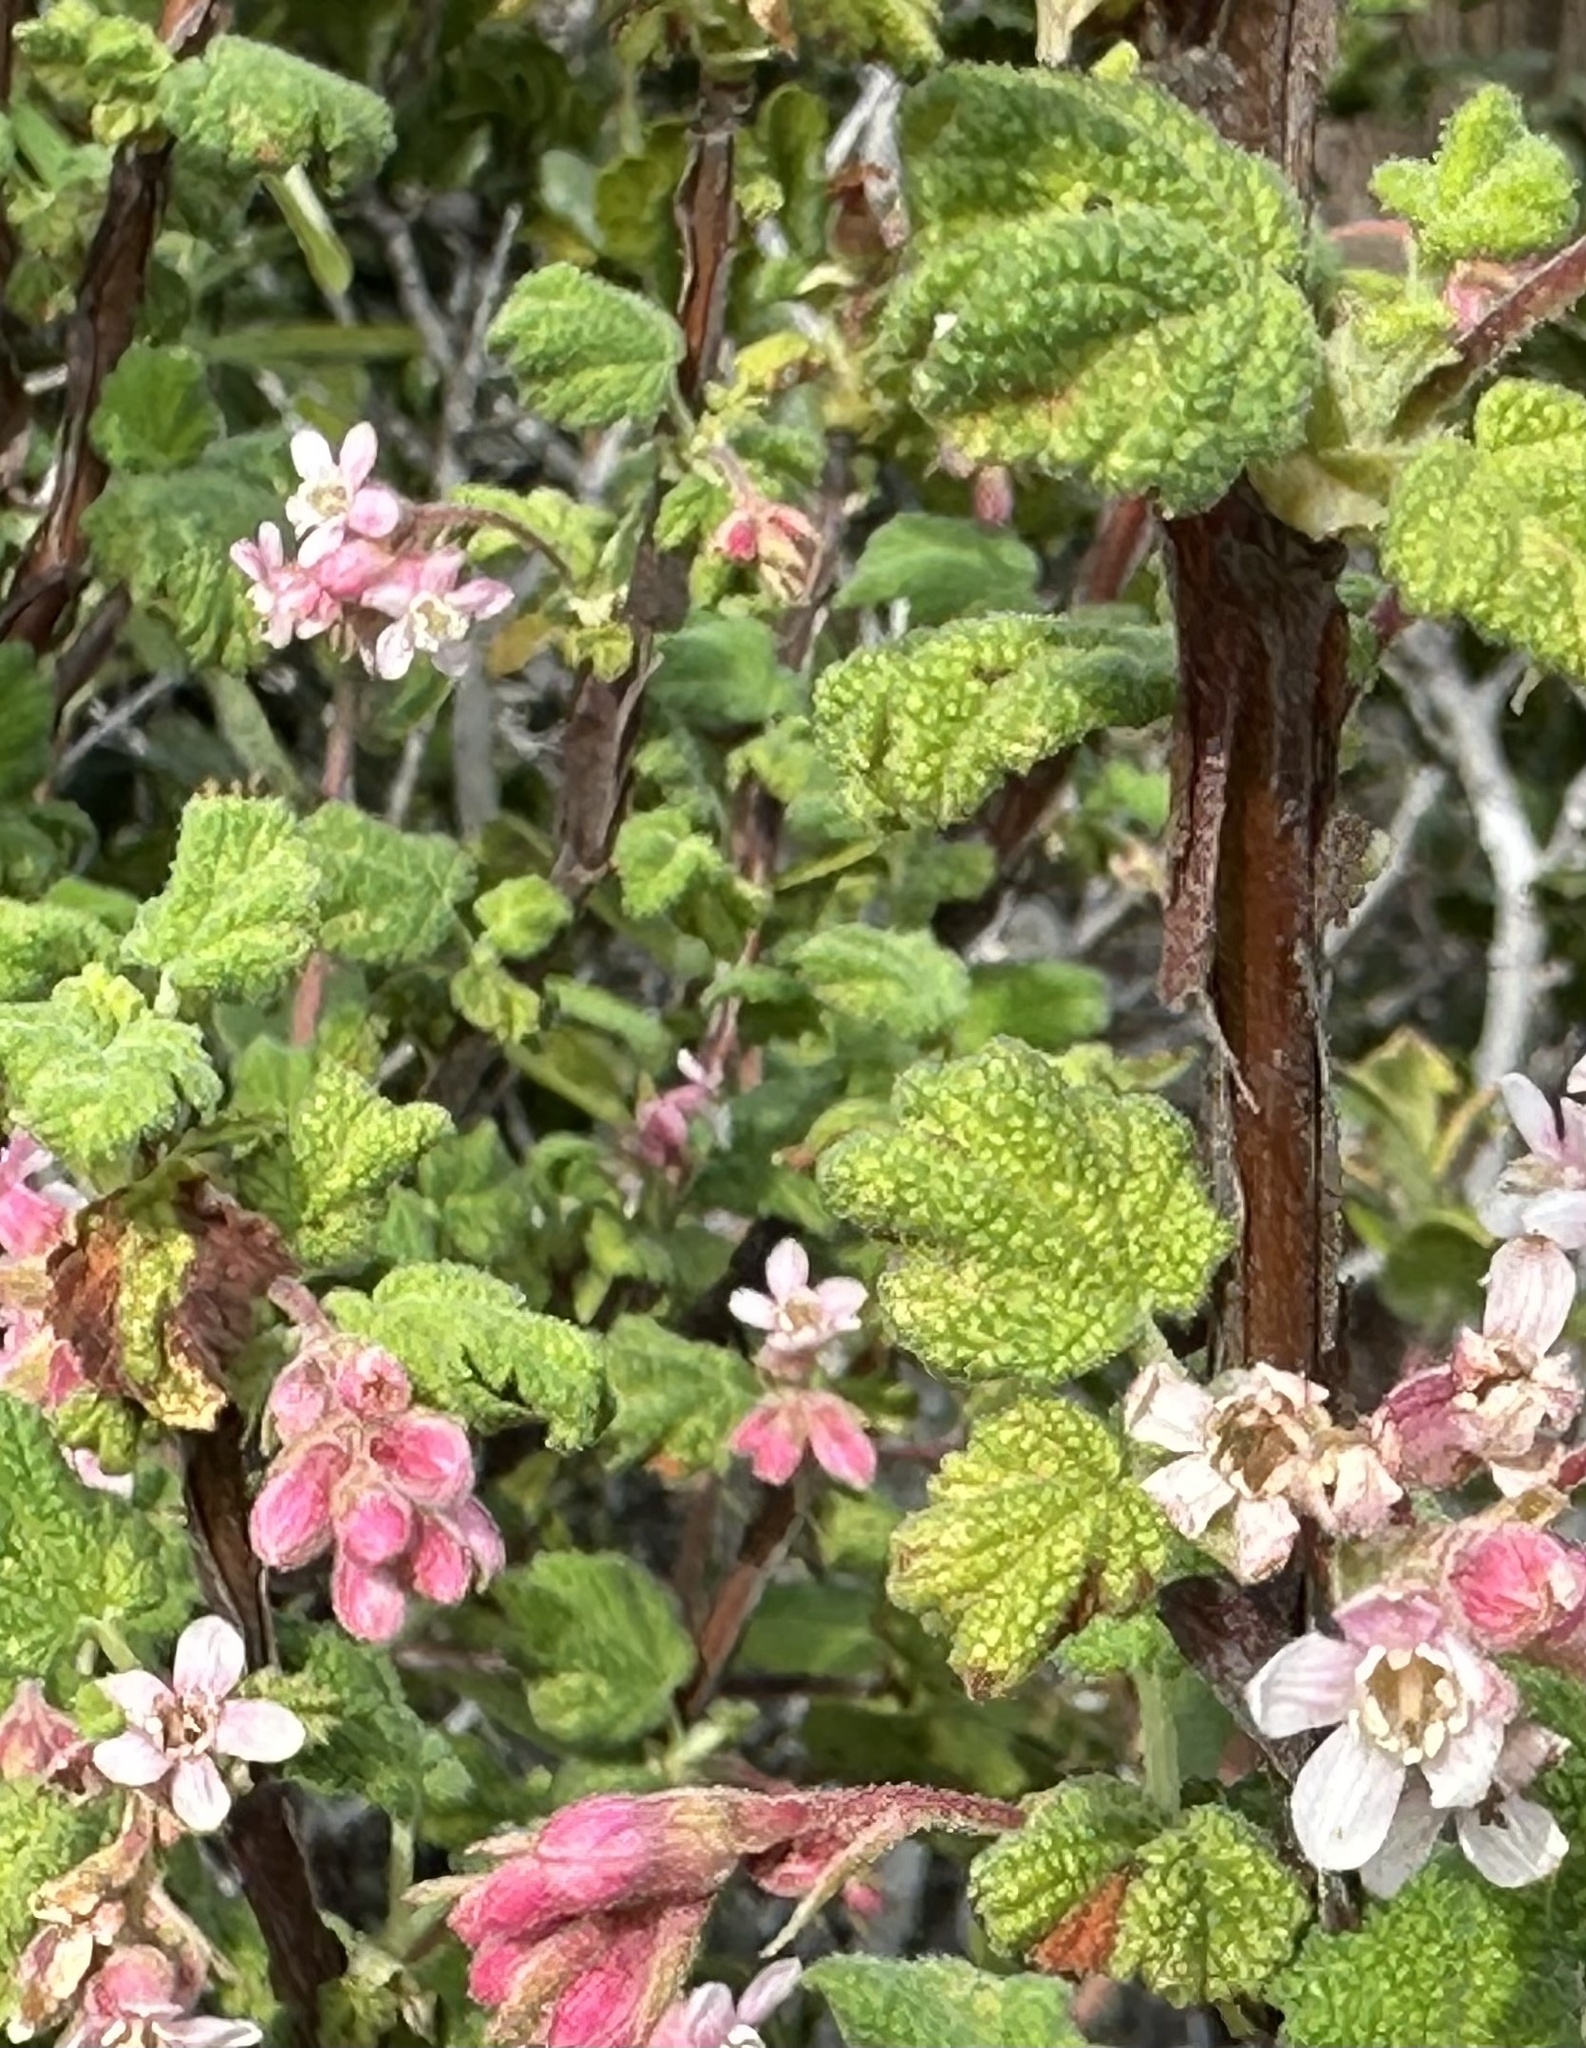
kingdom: Plantae
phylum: Tracheophyta
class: Magnoliopsida
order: Saxifragales
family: Grossulariaceae
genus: Ribes
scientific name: Ribes malvaceum
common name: Chaparral currant
